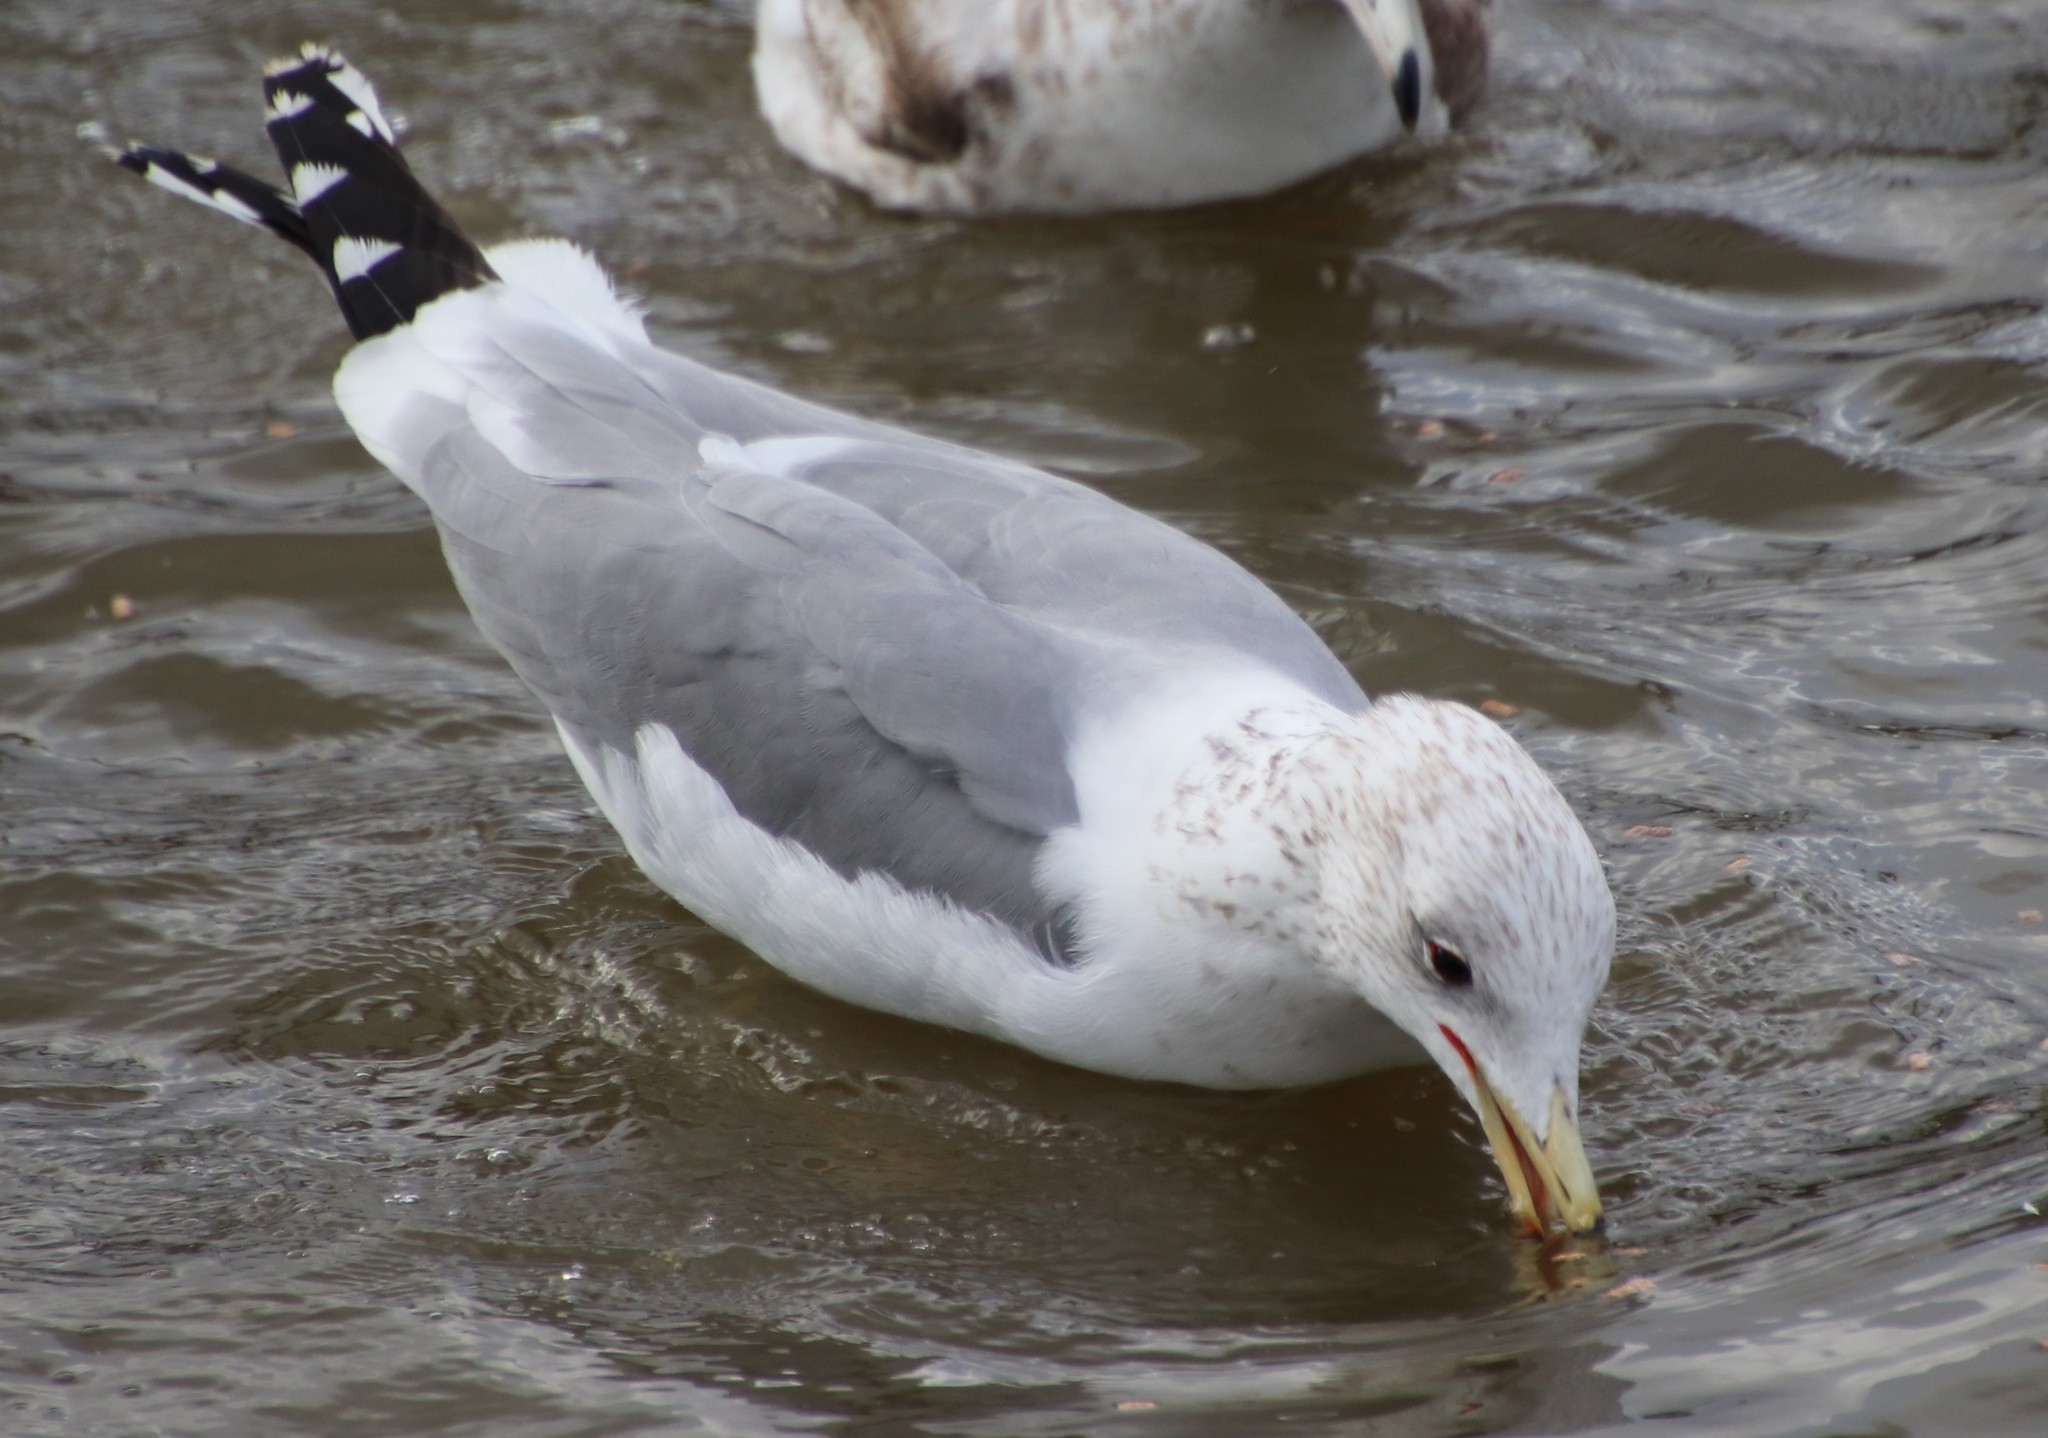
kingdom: Animalia
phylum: Chordata
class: Aves
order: Charadriiformes
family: Laridae
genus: Larus
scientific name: Larus californicus
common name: California gull
